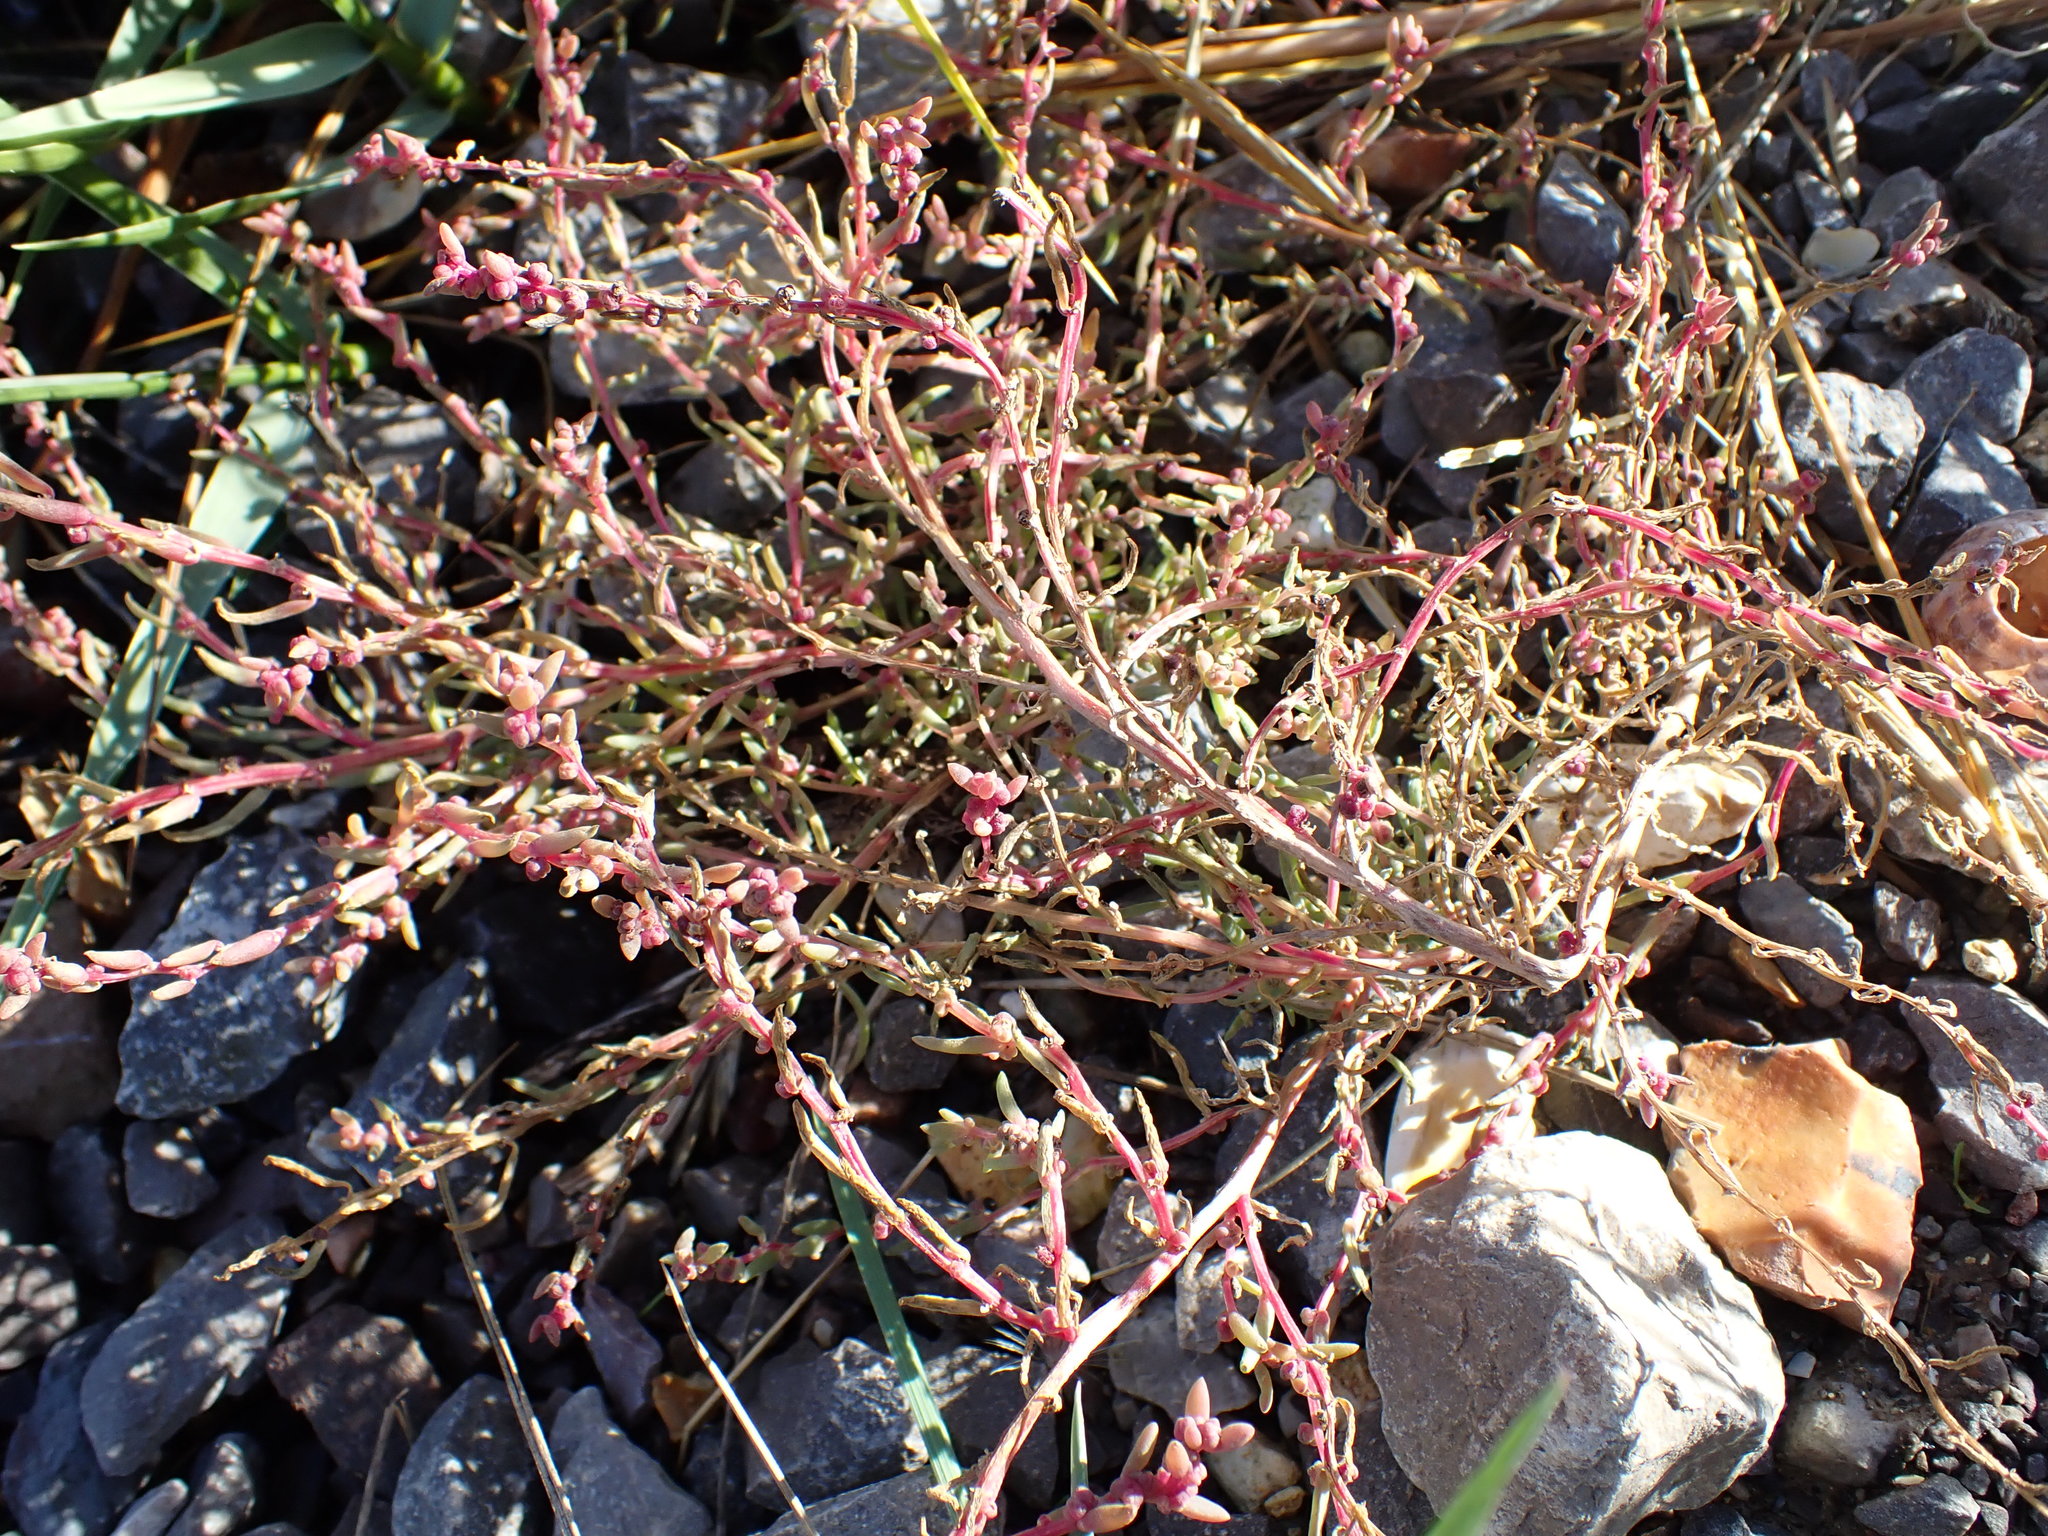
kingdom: Plantae
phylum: Tracheophyta
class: Magnoliopsida
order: Caryophyllales
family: Amaranthaceae
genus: Suaeda
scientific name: Suaeda maritima
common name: Annual sea-blite
